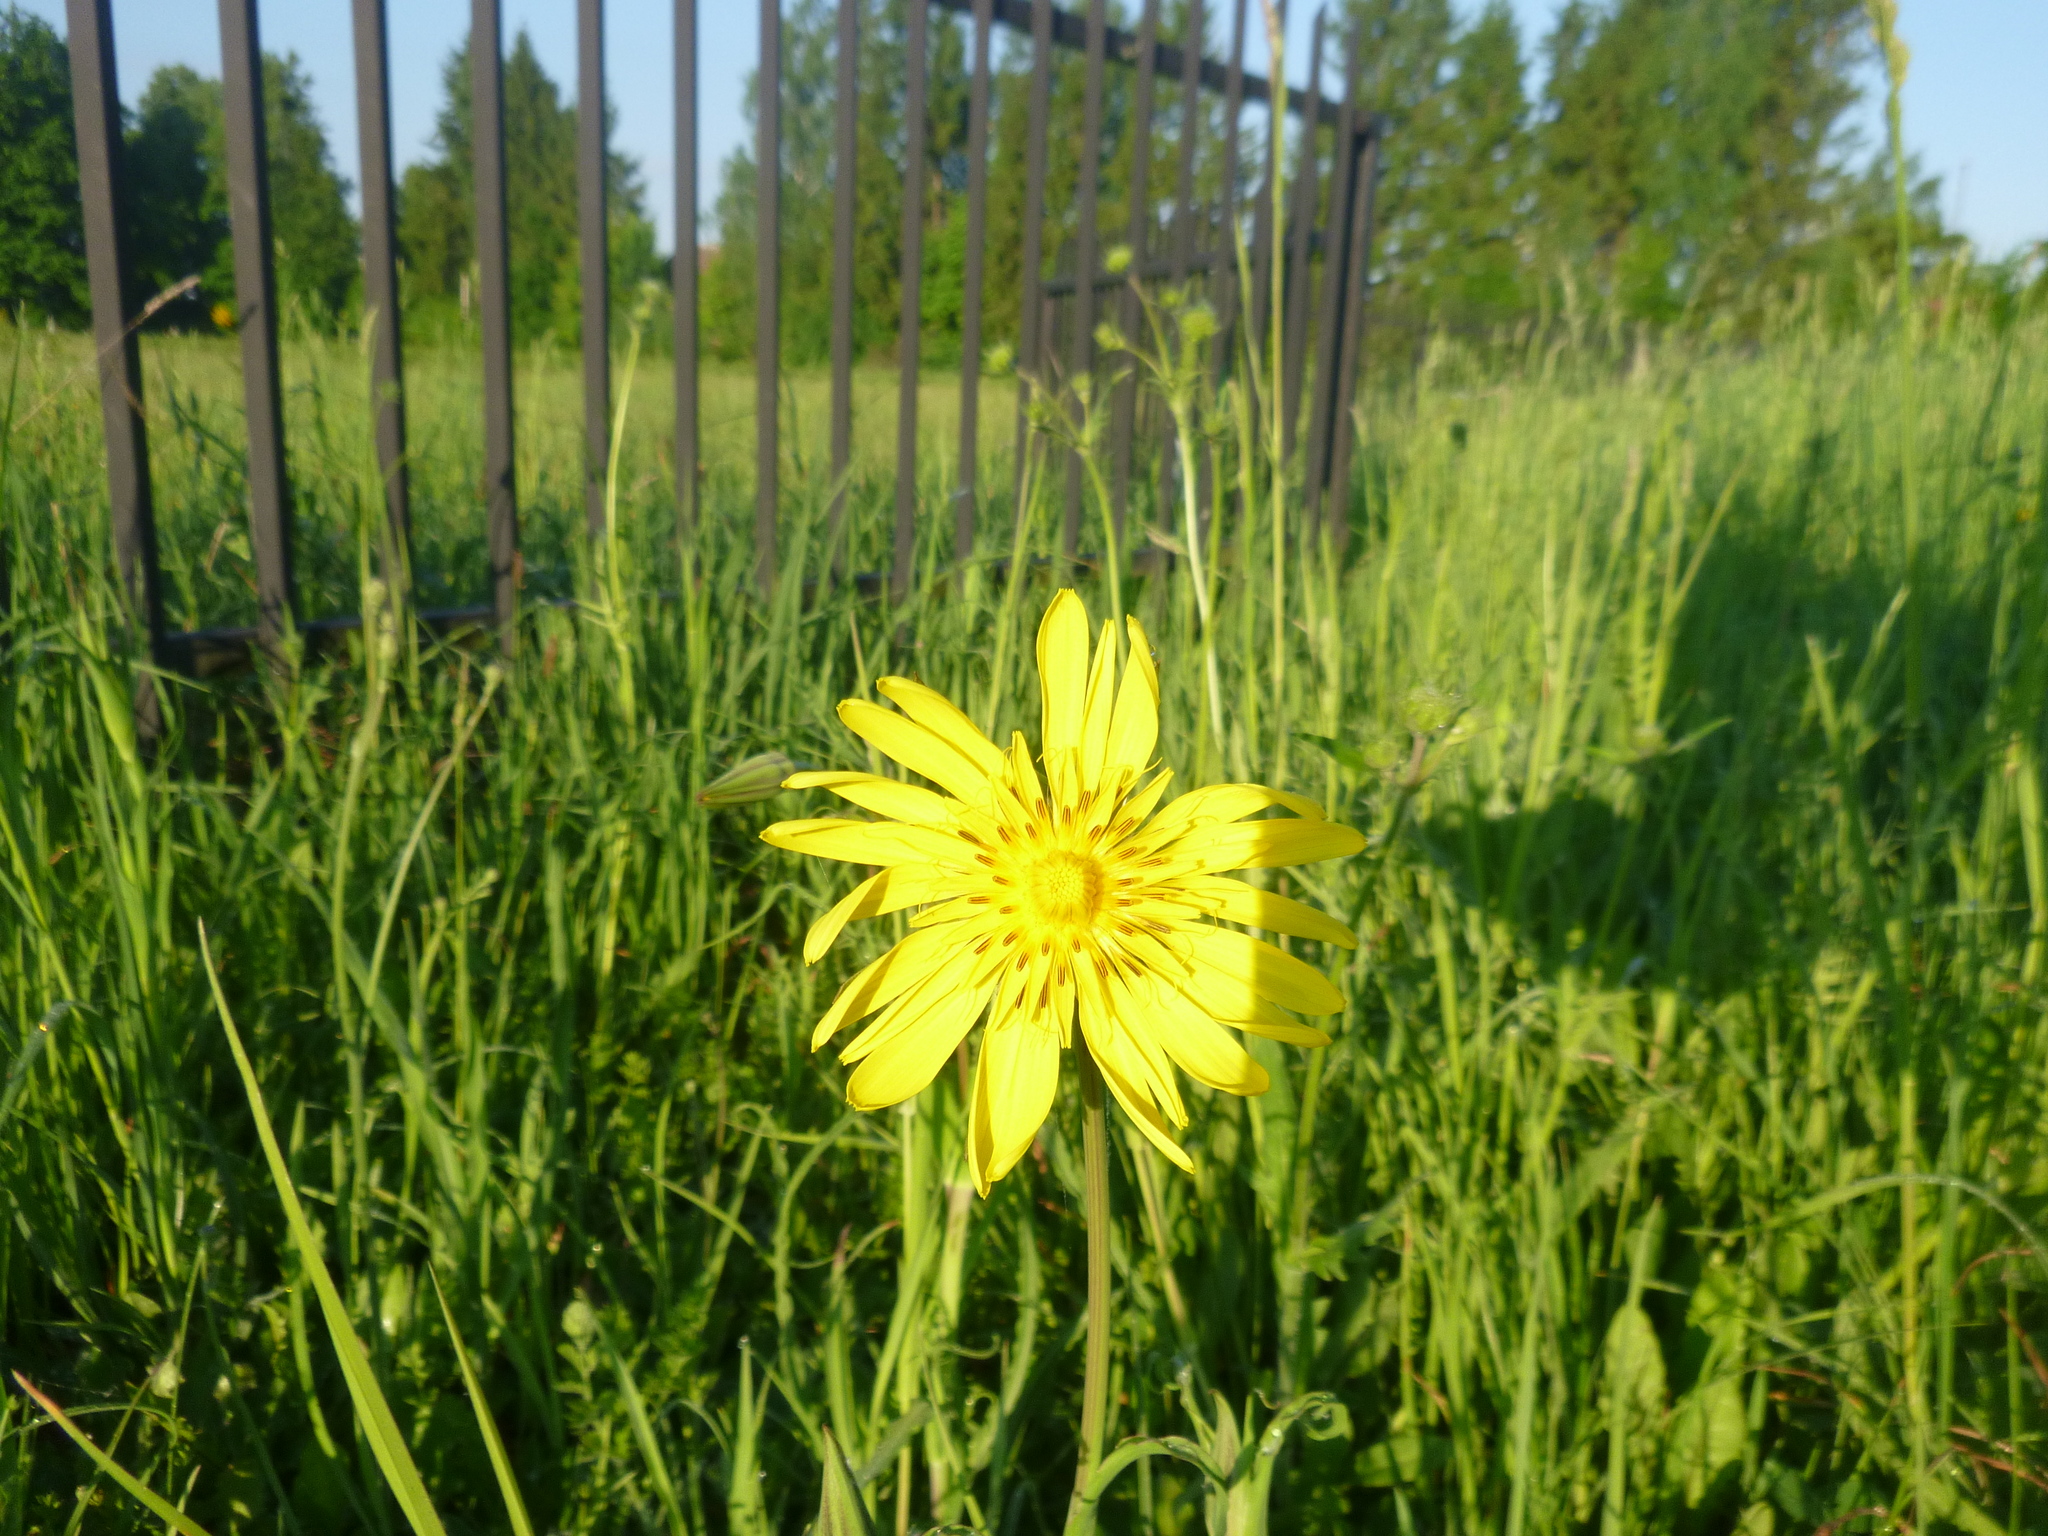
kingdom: Plantae
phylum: Tracheophyta
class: Magnoliopsida
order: Asterales
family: Asteraceae
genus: Tragopogon
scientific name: Tragopogon orientalis
